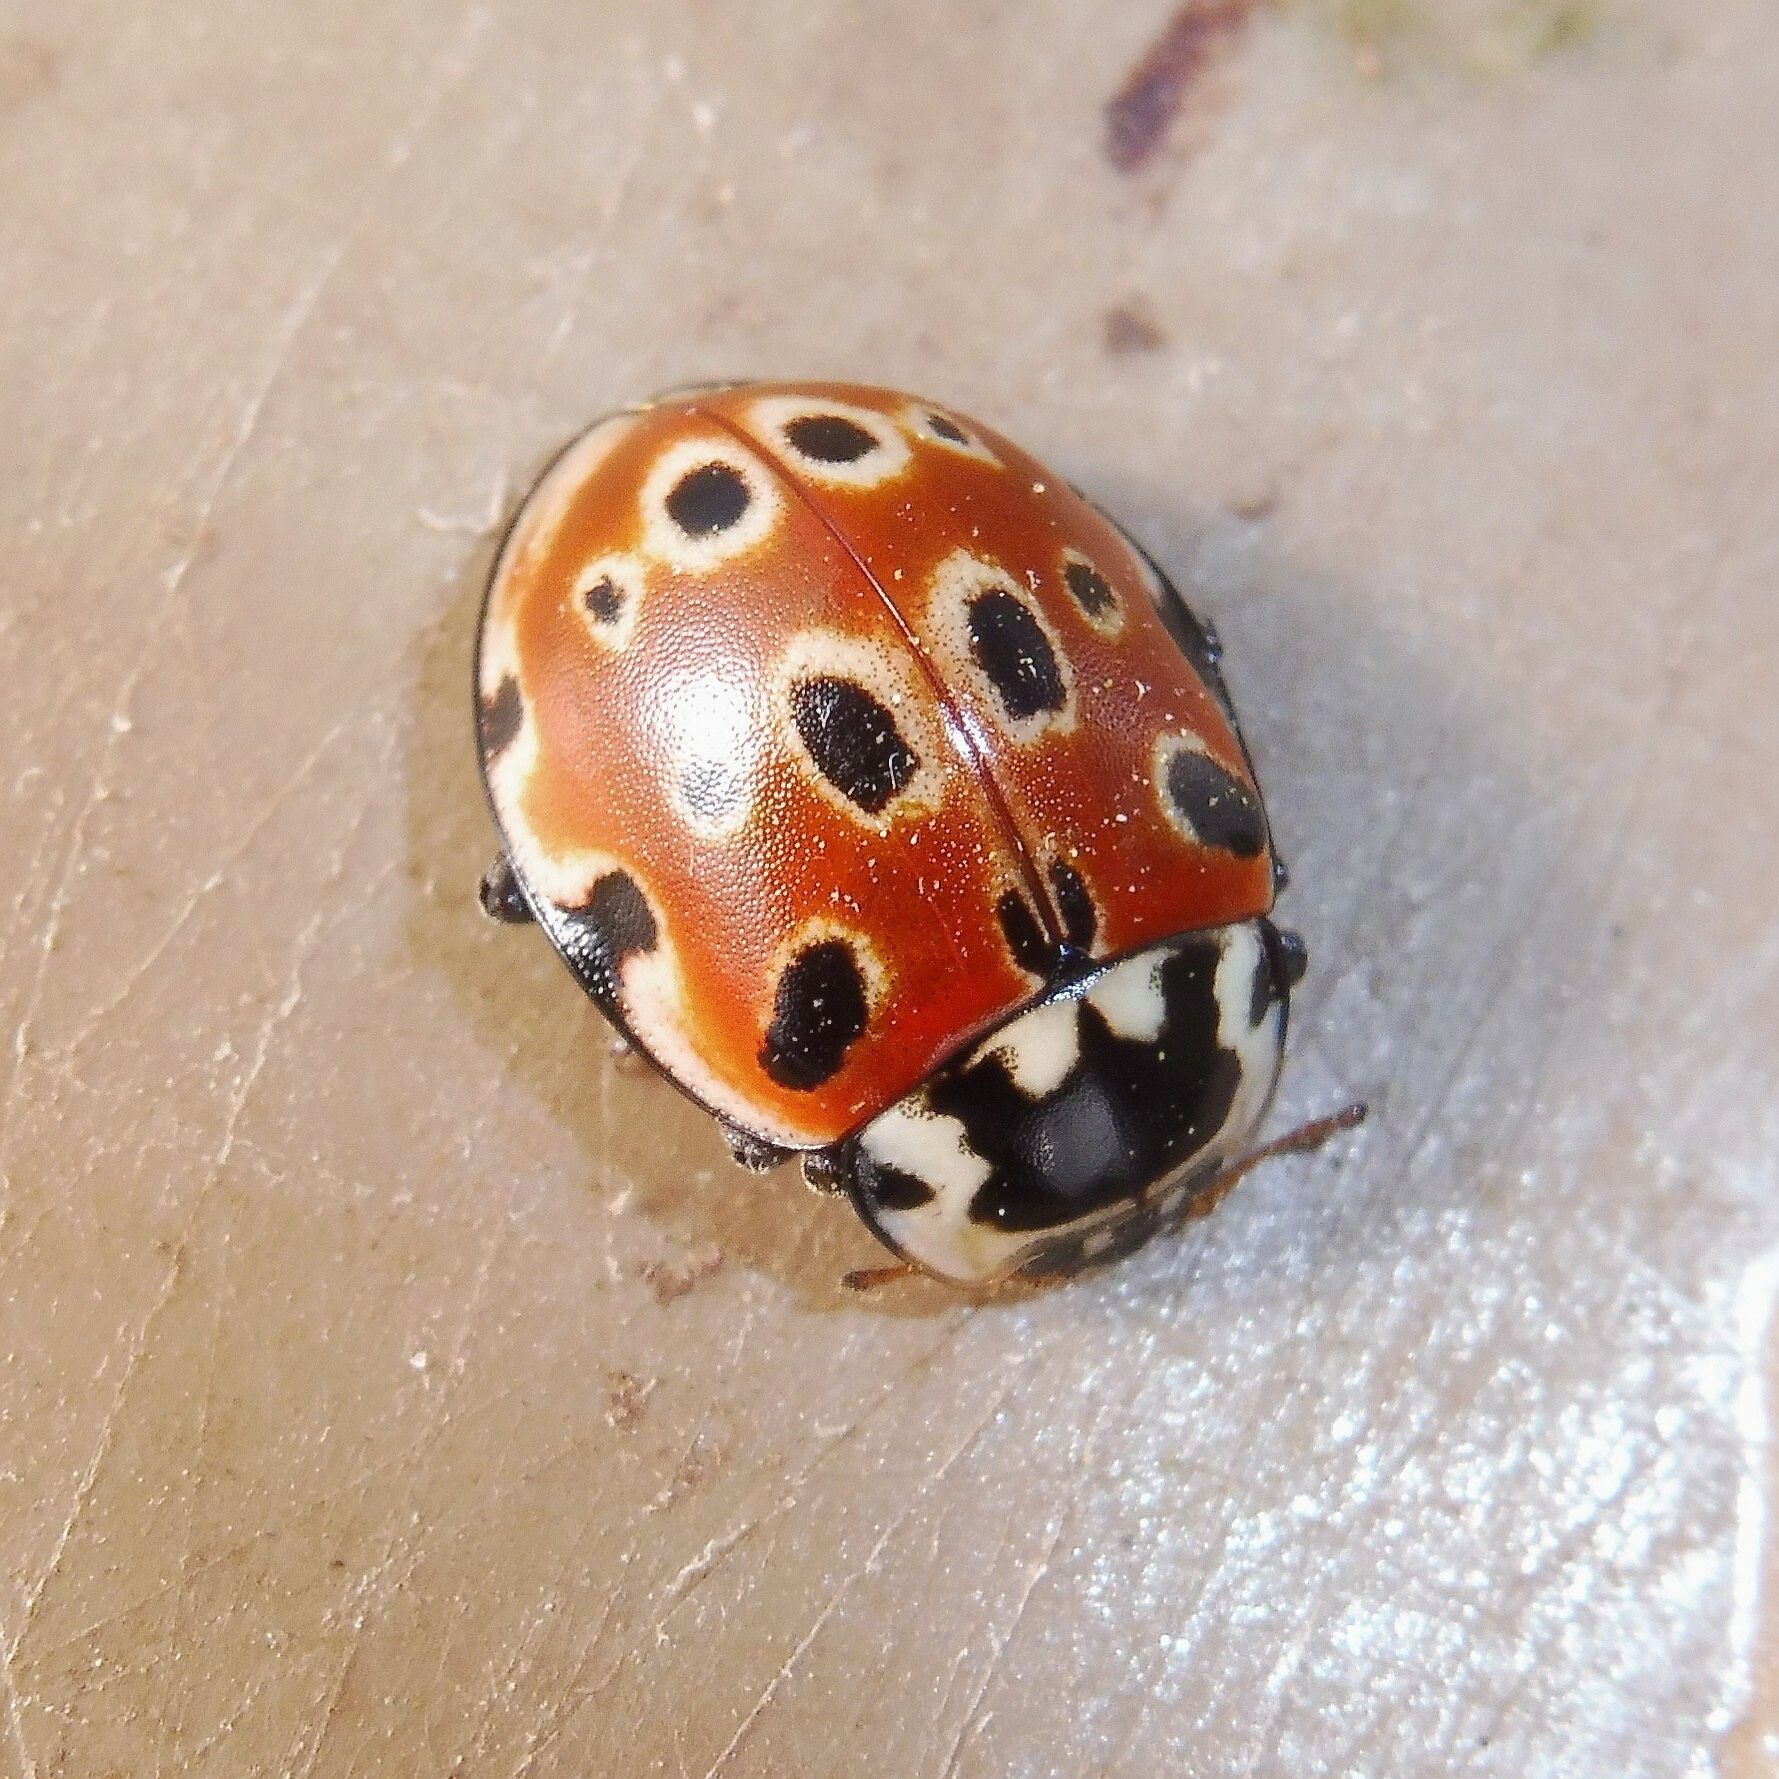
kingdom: Animalia
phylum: Arthropoda
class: Insecta
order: Coleoptera
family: Coccinellidae
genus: Anatis
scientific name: Anatis ocellata
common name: Eyed ladybird
